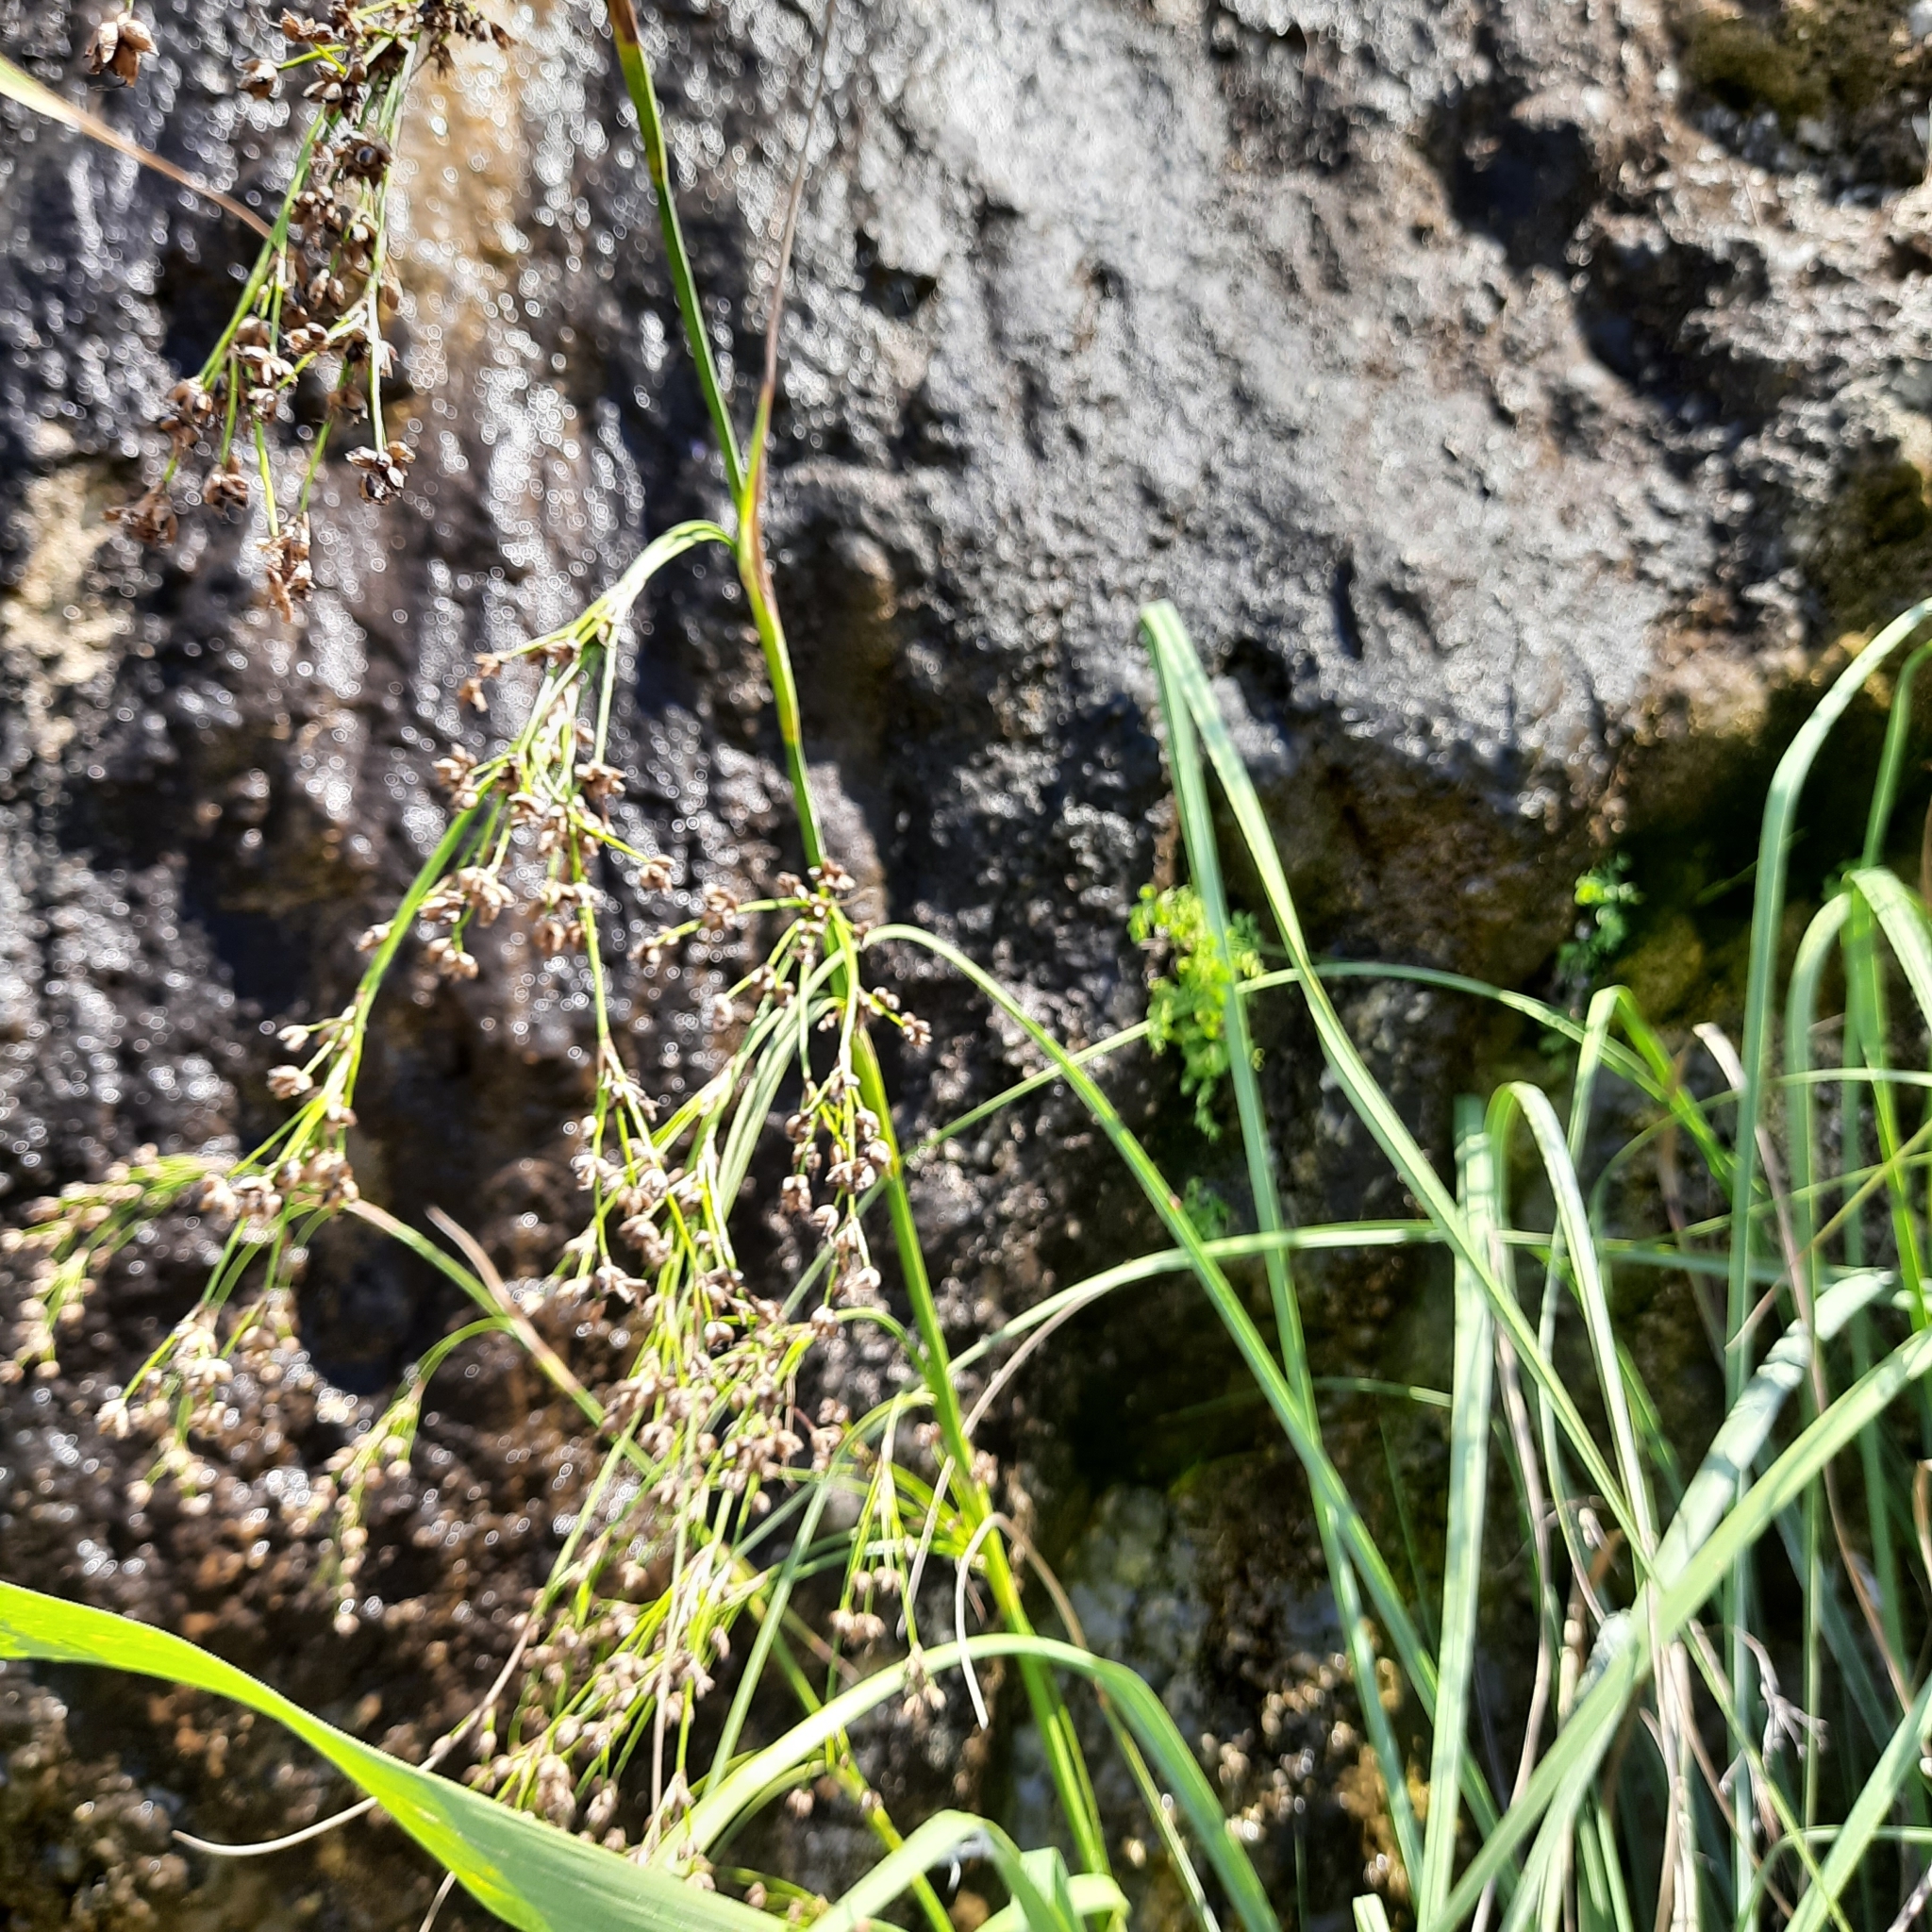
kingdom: Plantae
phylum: Tracheophyta
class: Liliopsida
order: Poales
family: Cyperaceae
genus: Cladium
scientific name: Cladium mariscus
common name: Great fen-sedge
